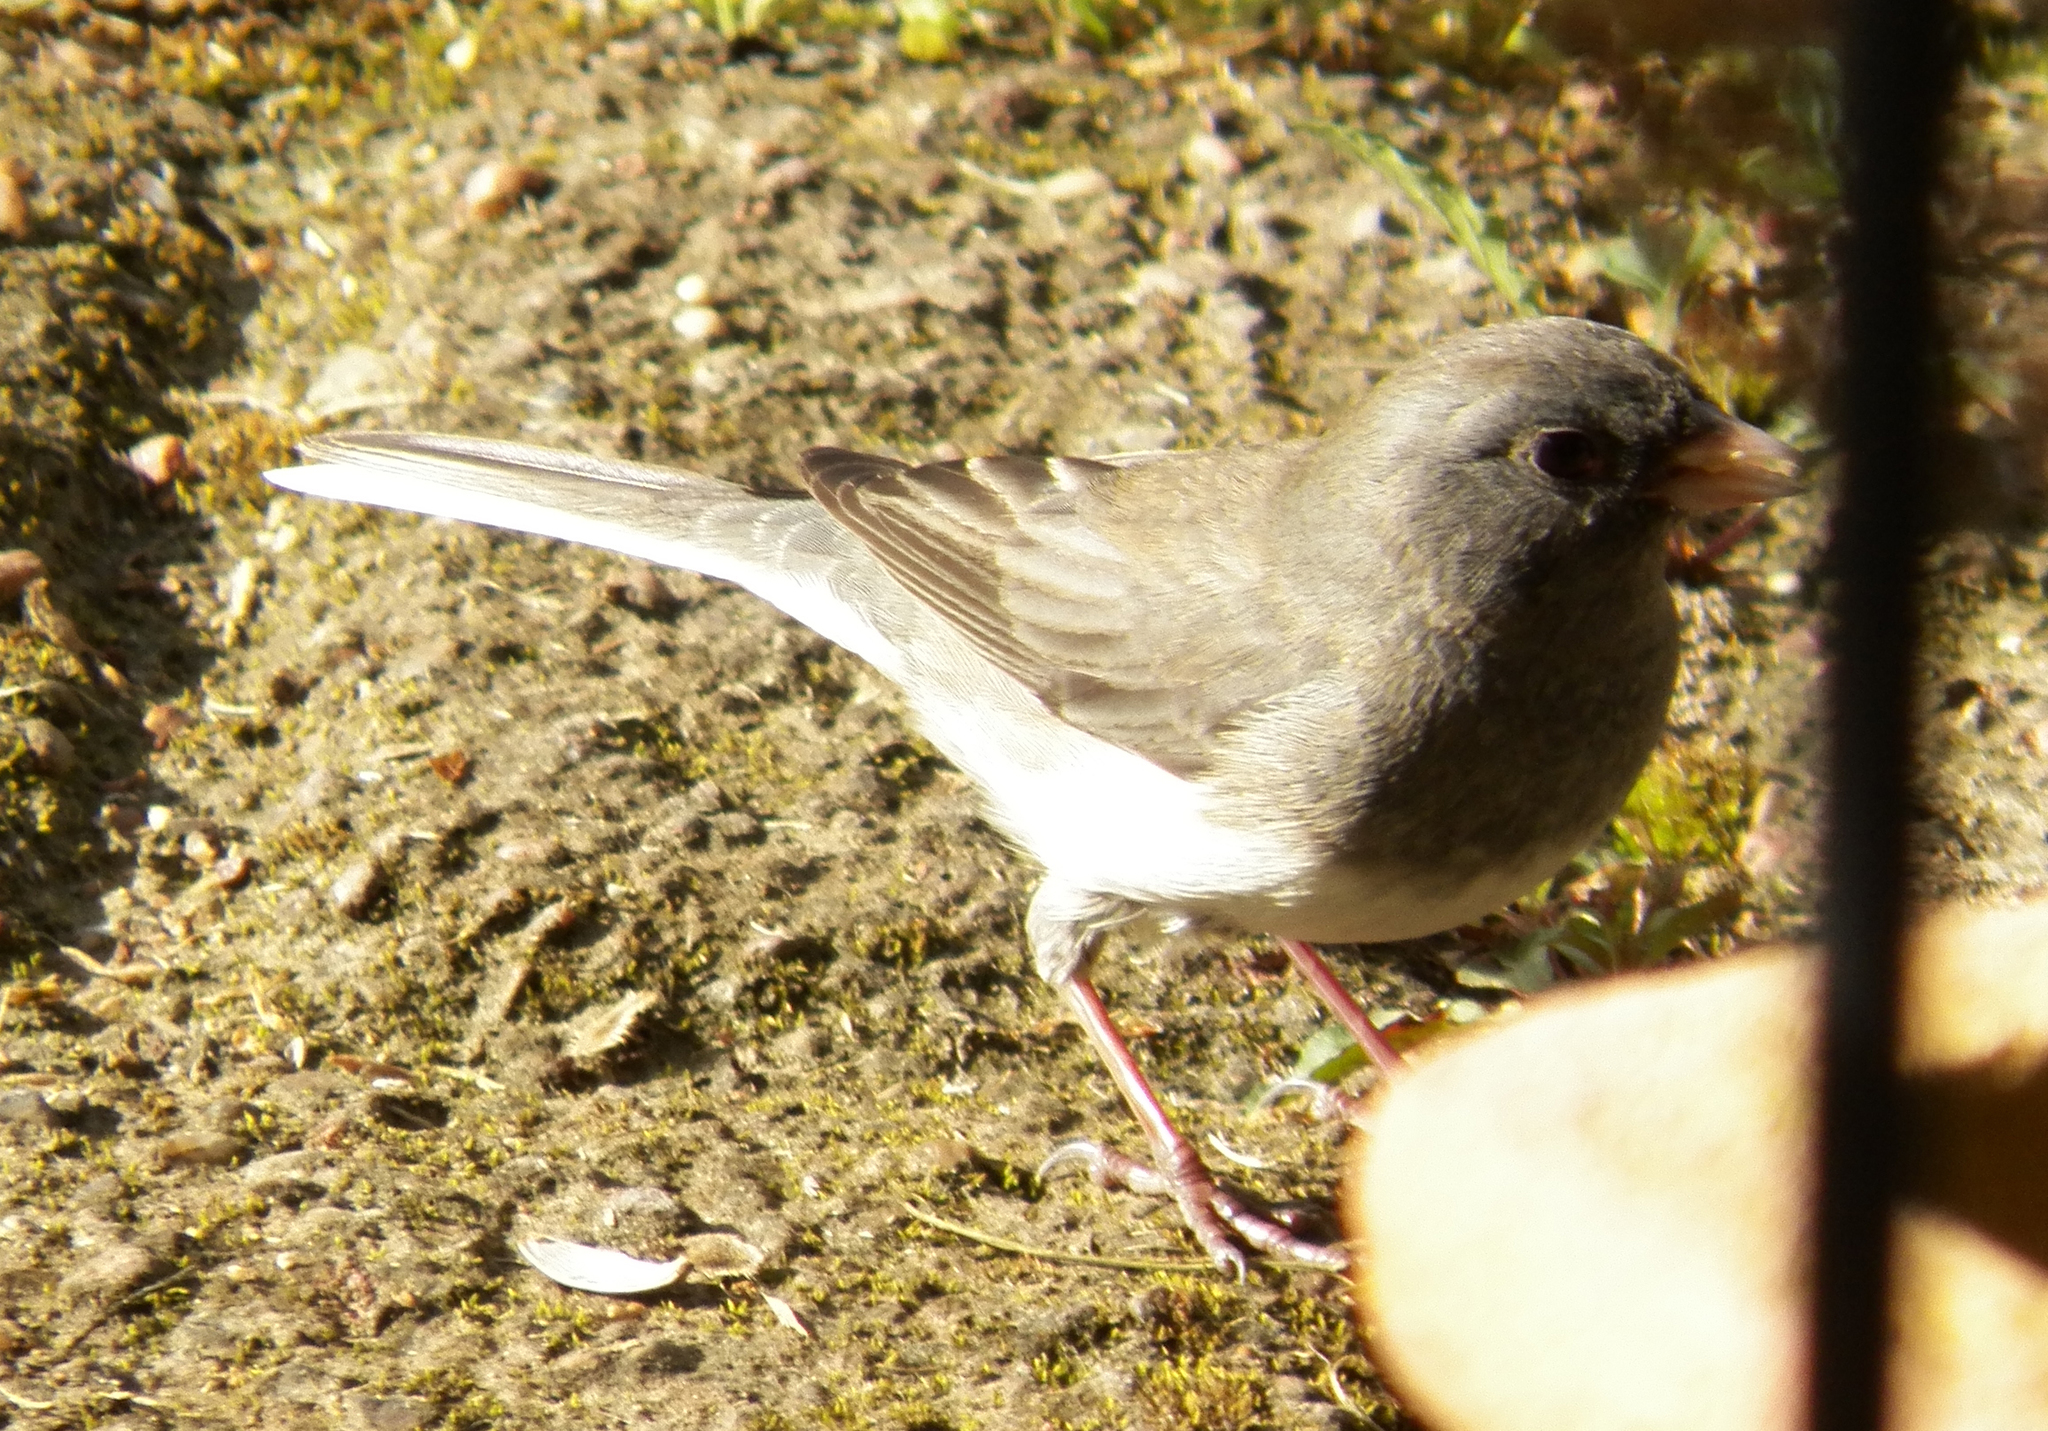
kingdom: Animalia
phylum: Chordata
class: Aves
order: Passeriformes
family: Passerellidae
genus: Junco
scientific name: Junco hyemalis
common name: Dark-eyed junco
